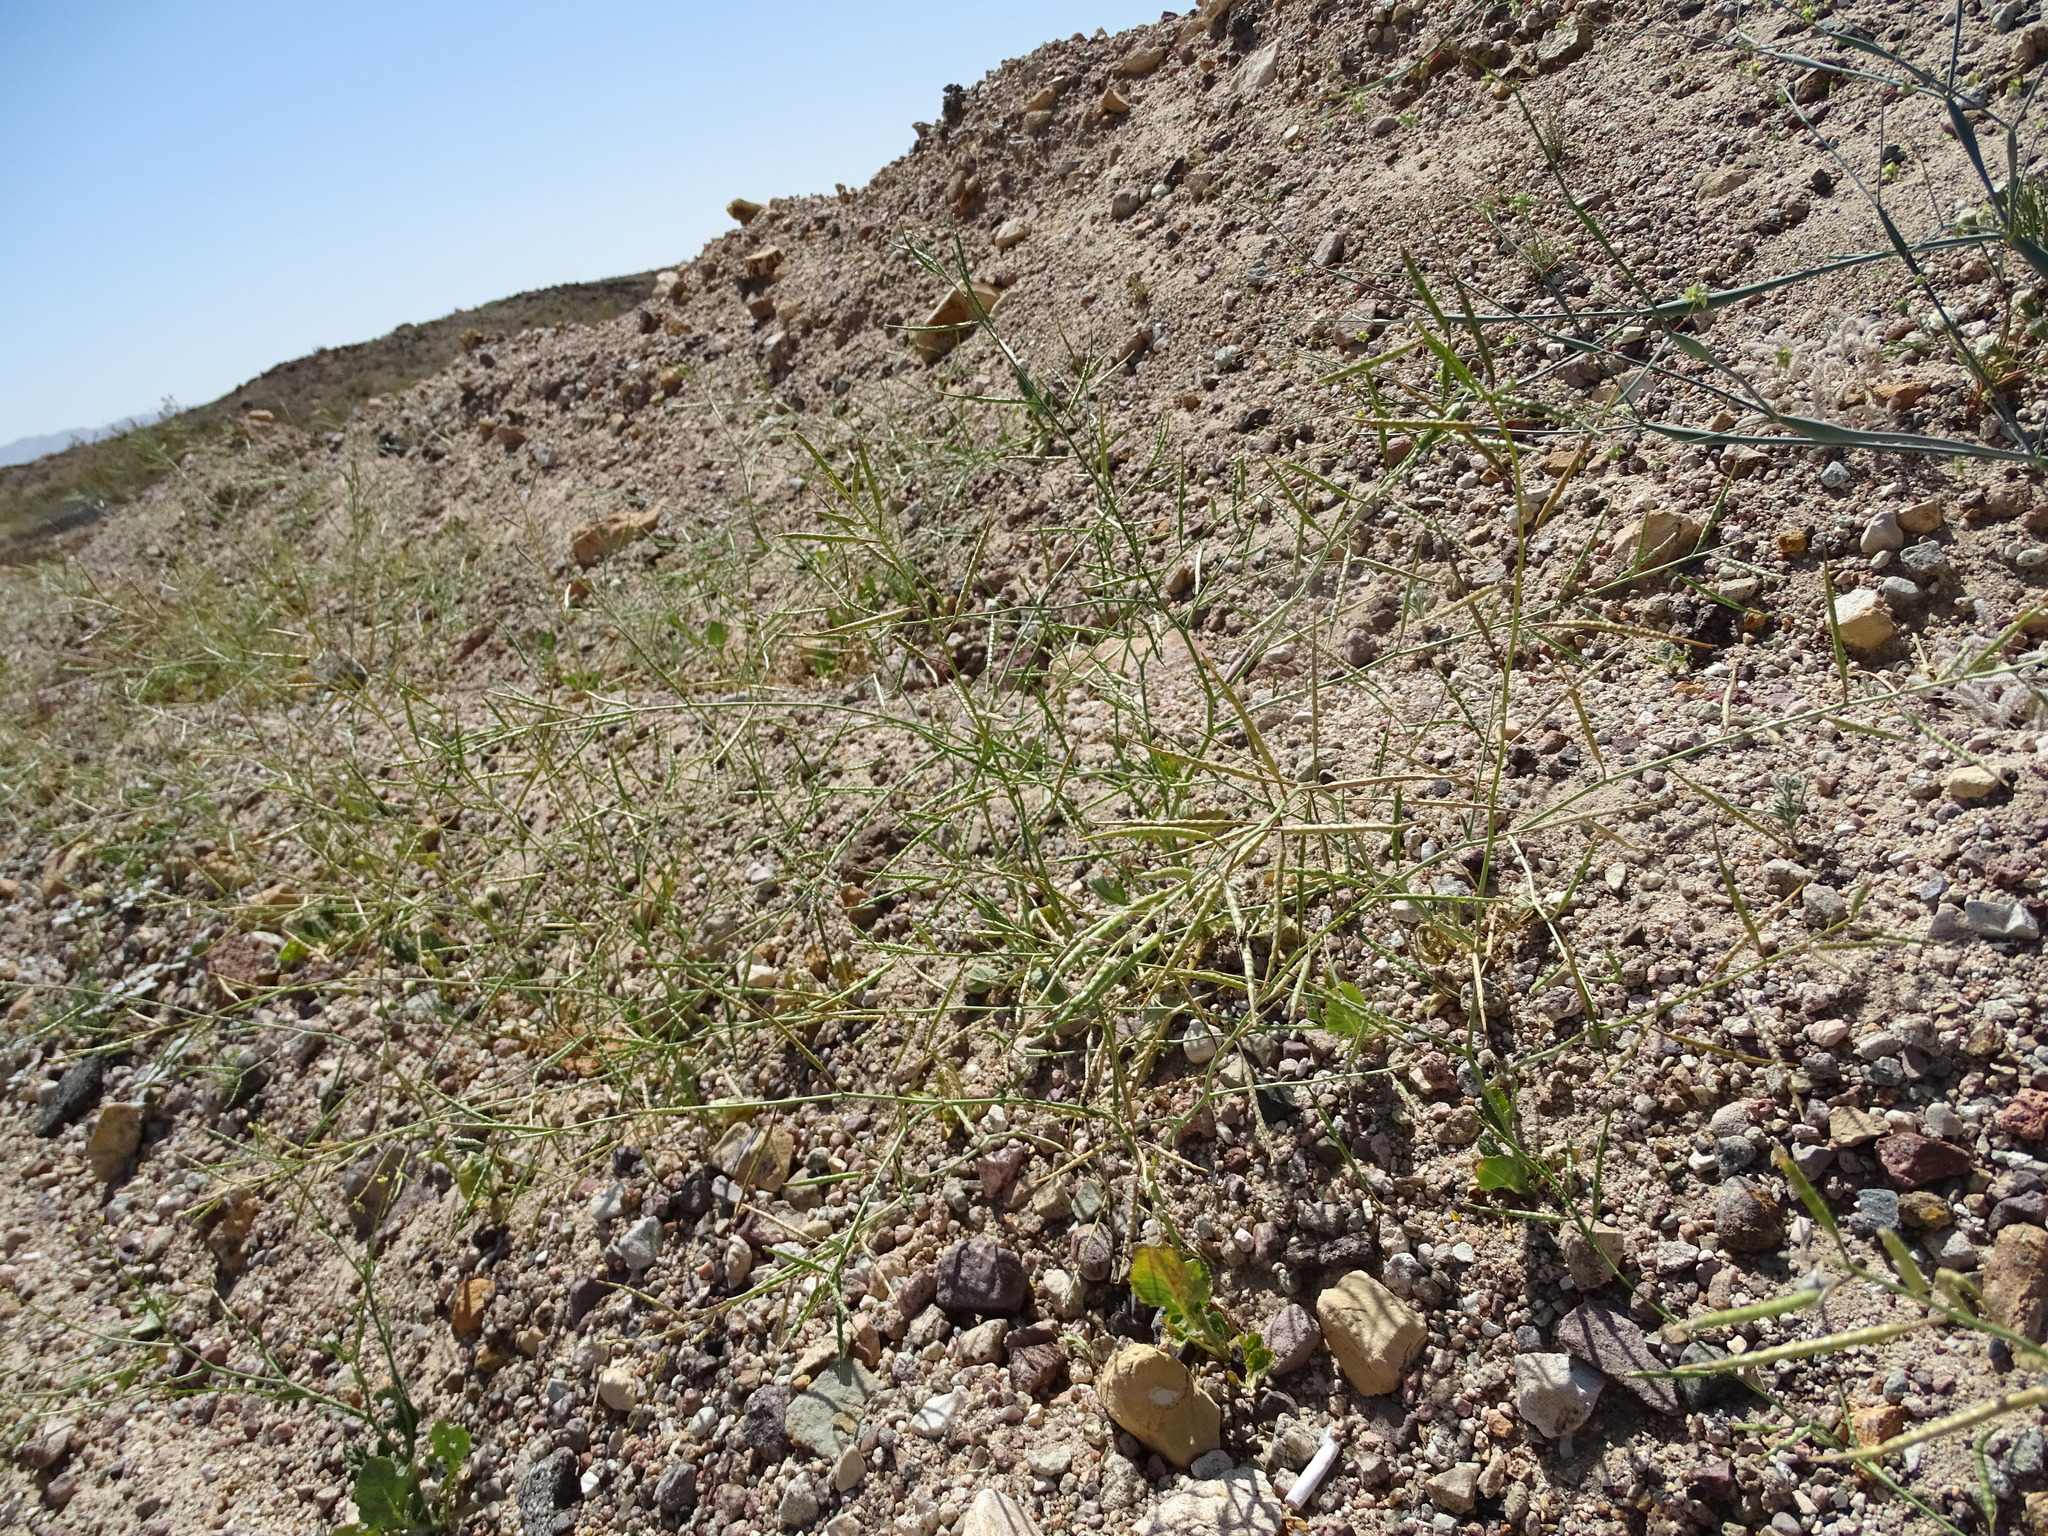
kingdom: Plantae
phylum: Tracheophyta
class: Magnoliopsida
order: Brassicales
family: Brassicaceae
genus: Brassica
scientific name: Brassica tournefortii
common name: Pale cabbage
